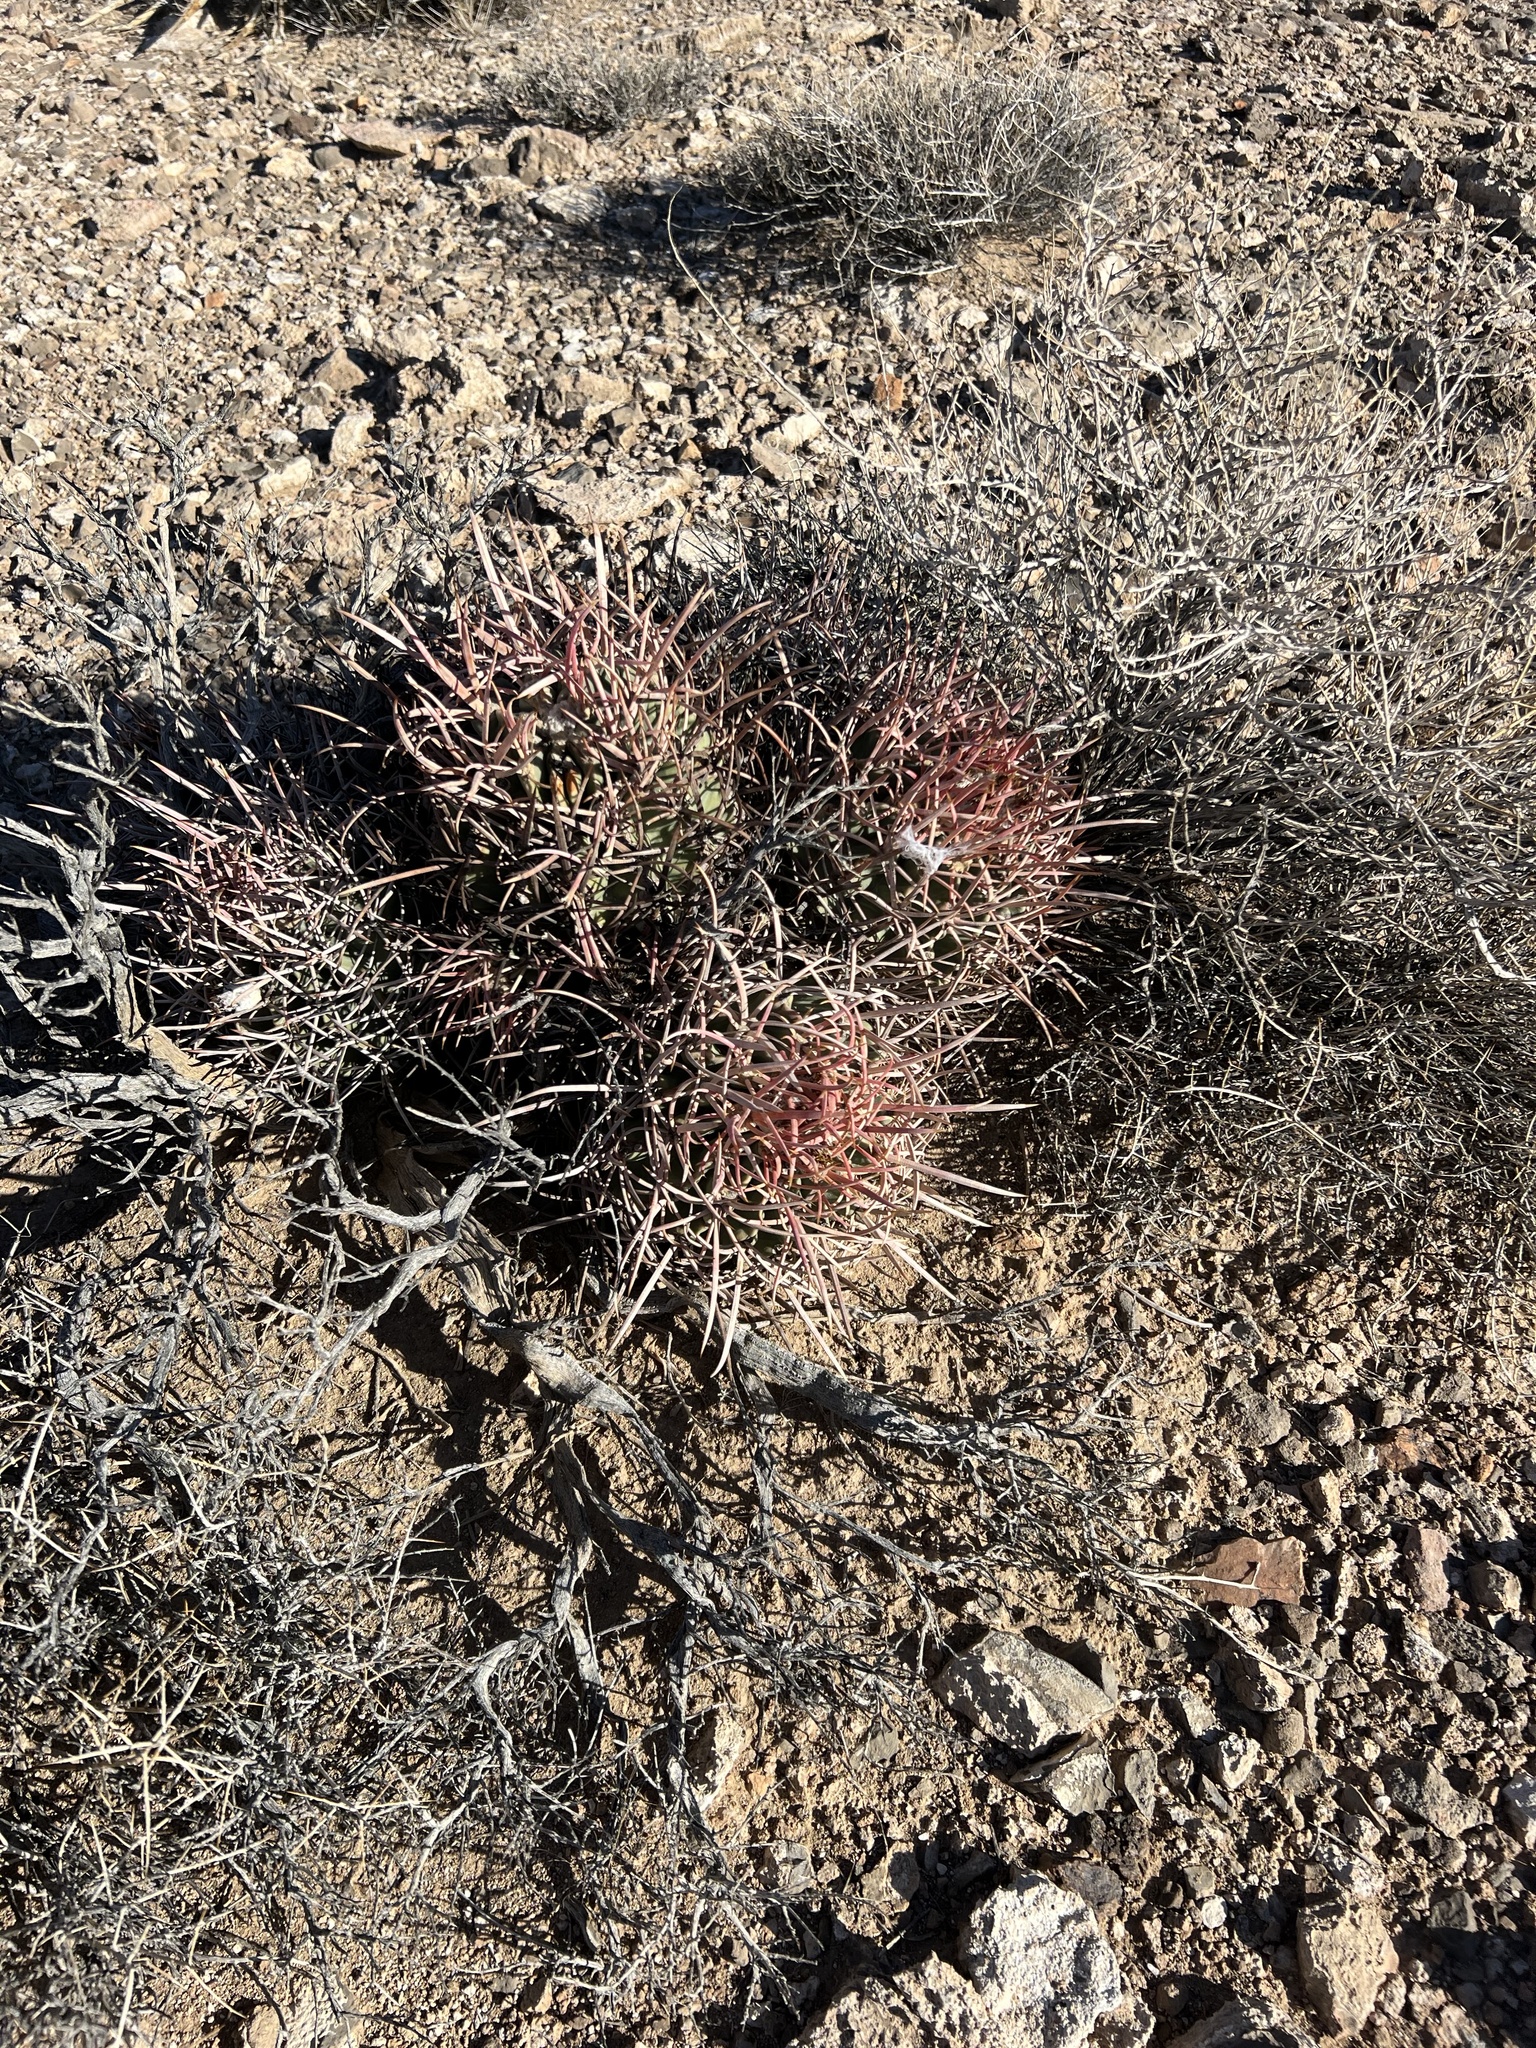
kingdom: Plantae
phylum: Tracheophyta
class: Magnoliopsida
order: Caryophyllales
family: Cactaceae
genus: Echinocactus
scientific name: Echinocactus polycephalus
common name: Cottontop cactus
